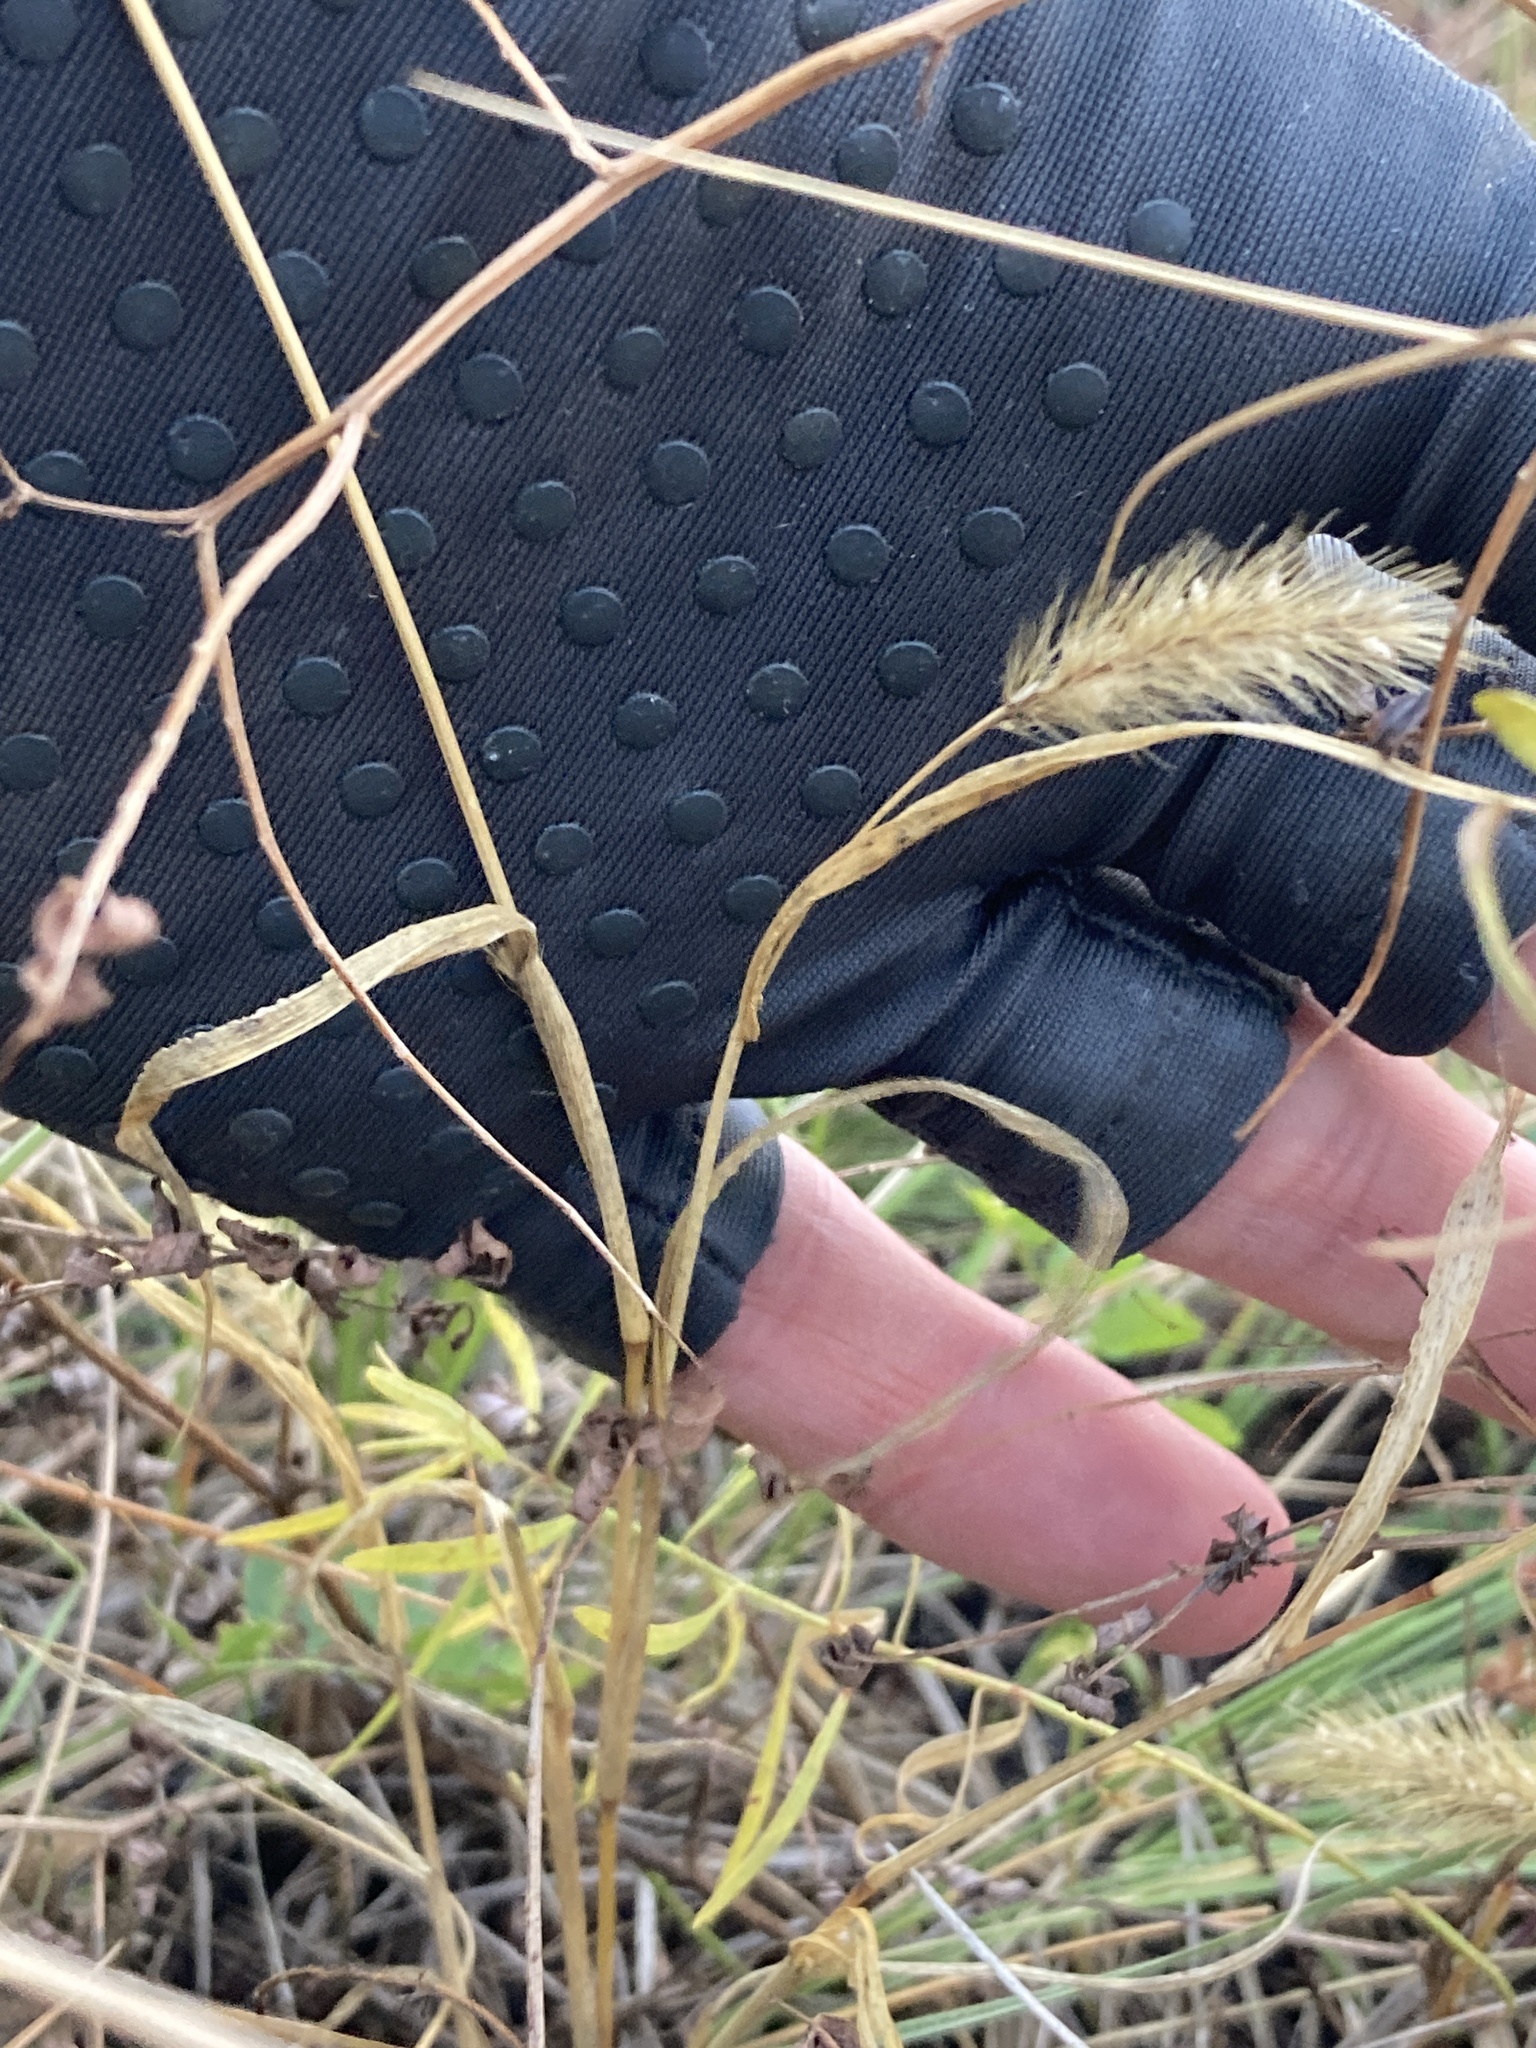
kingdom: Plantae
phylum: Tracheophyta
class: Liliopsida
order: Poales
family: Poaceae
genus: Setaria
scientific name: Setaria viridis
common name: Green bristlegrass
